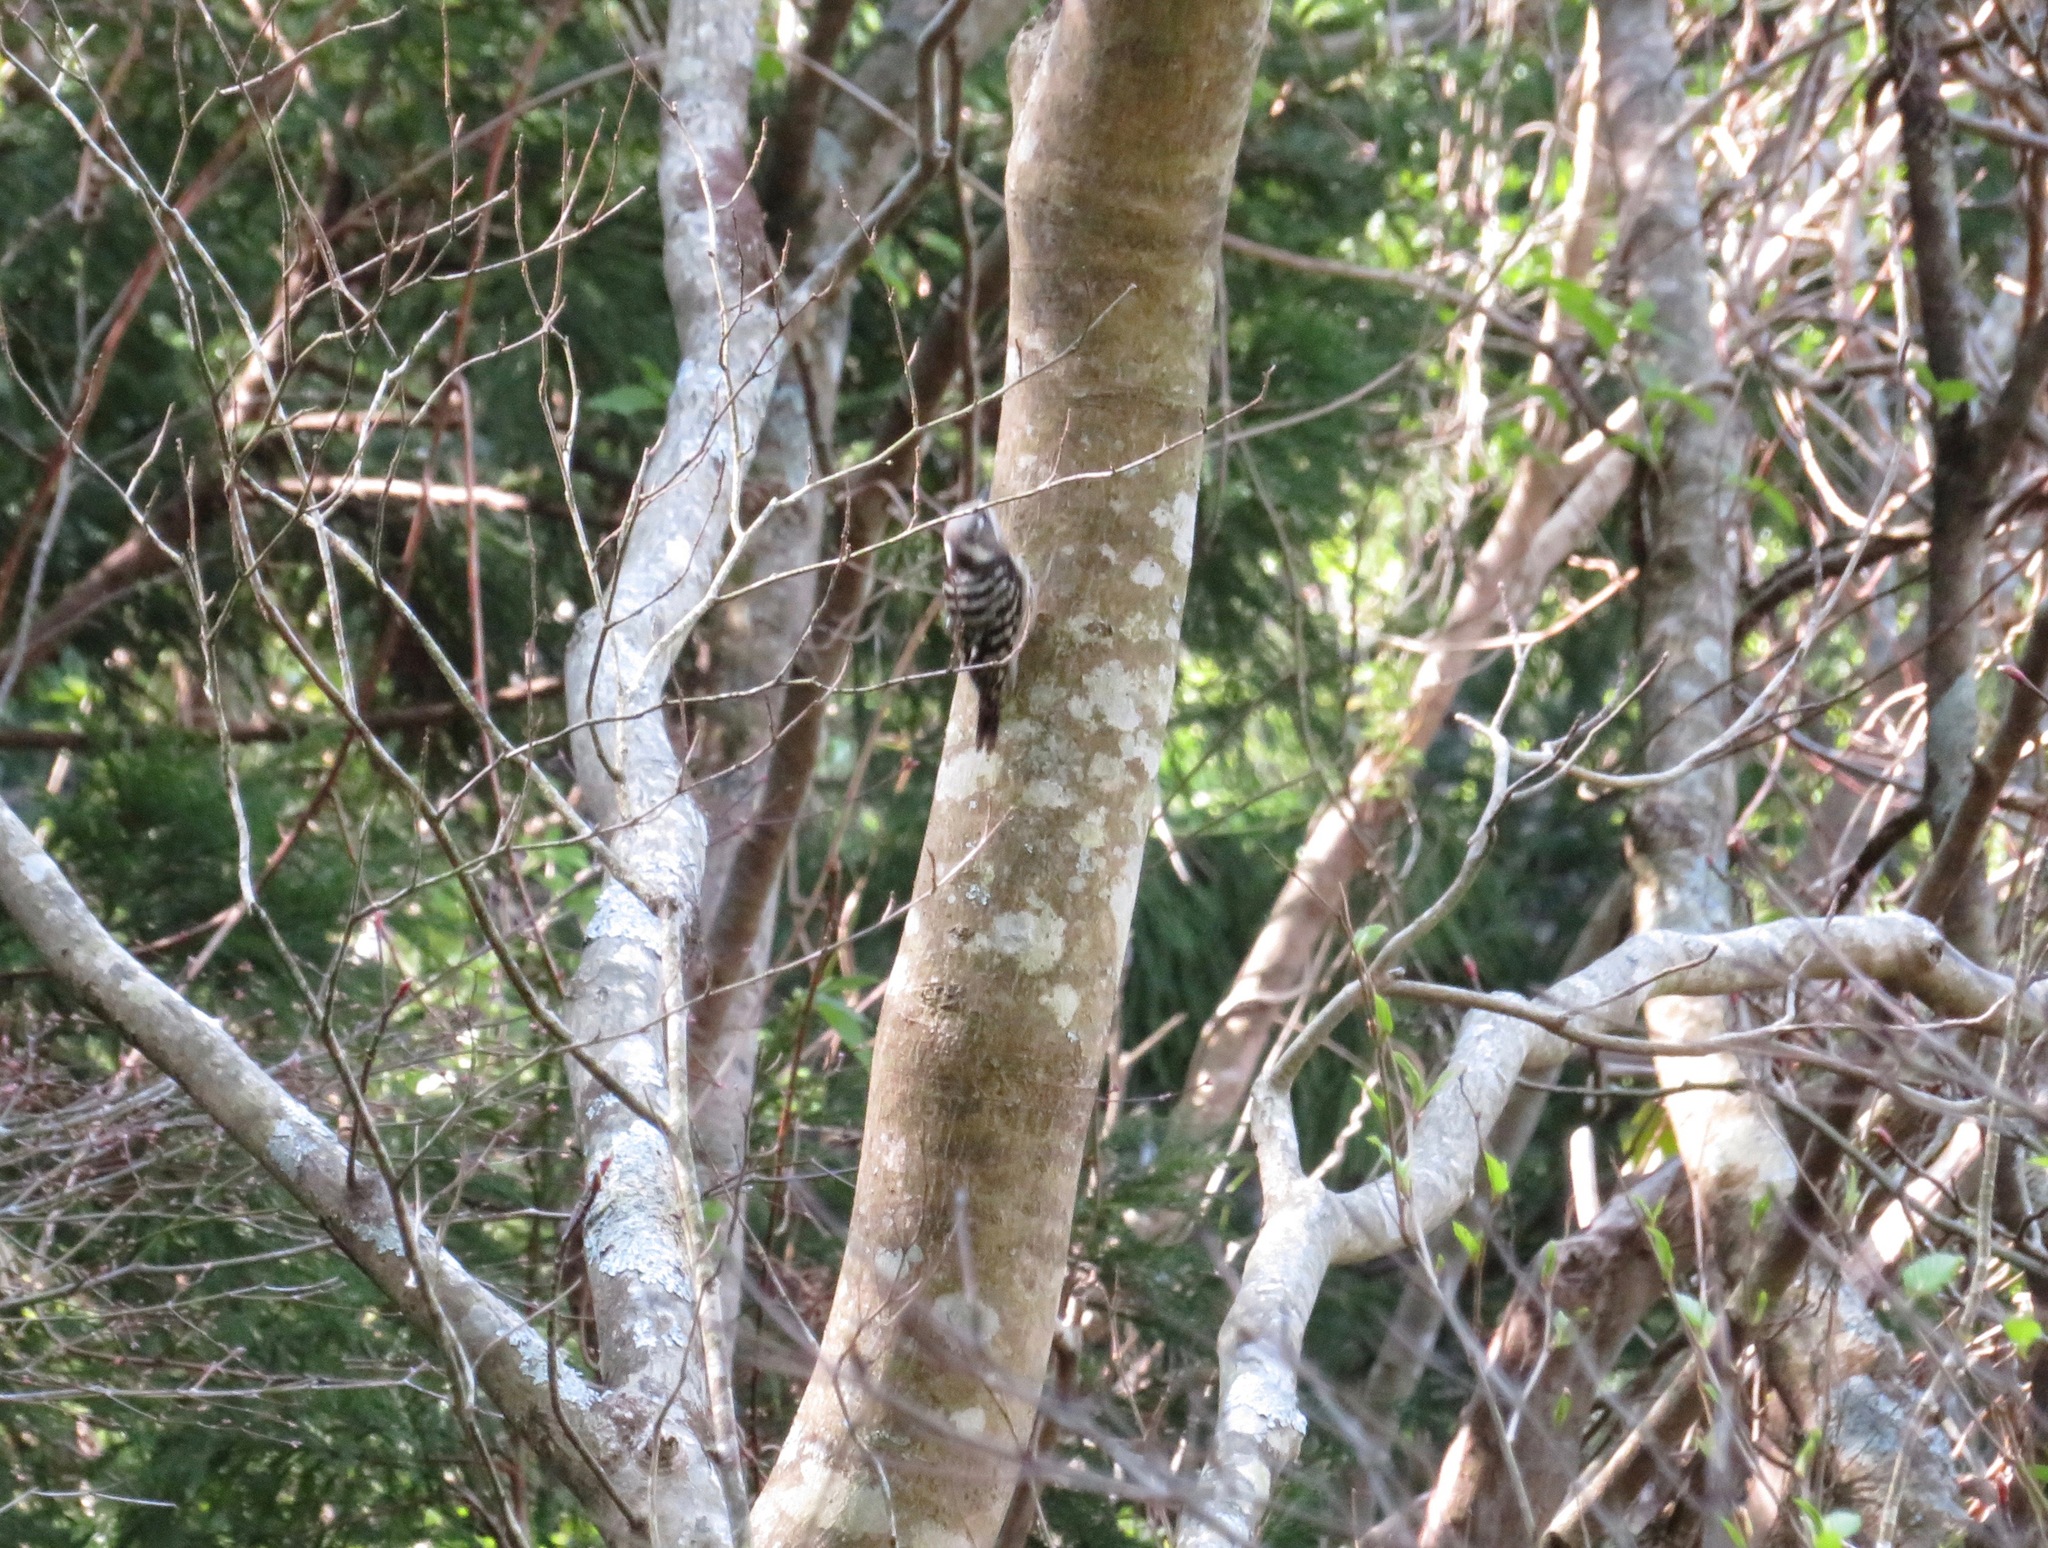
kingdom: Animalia
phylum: Chordata
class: Aves
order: Piciformes
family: Picidae
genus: Yungipicus
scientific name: Yungipicus kizuki
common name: Japanese pygmy woodpecker
